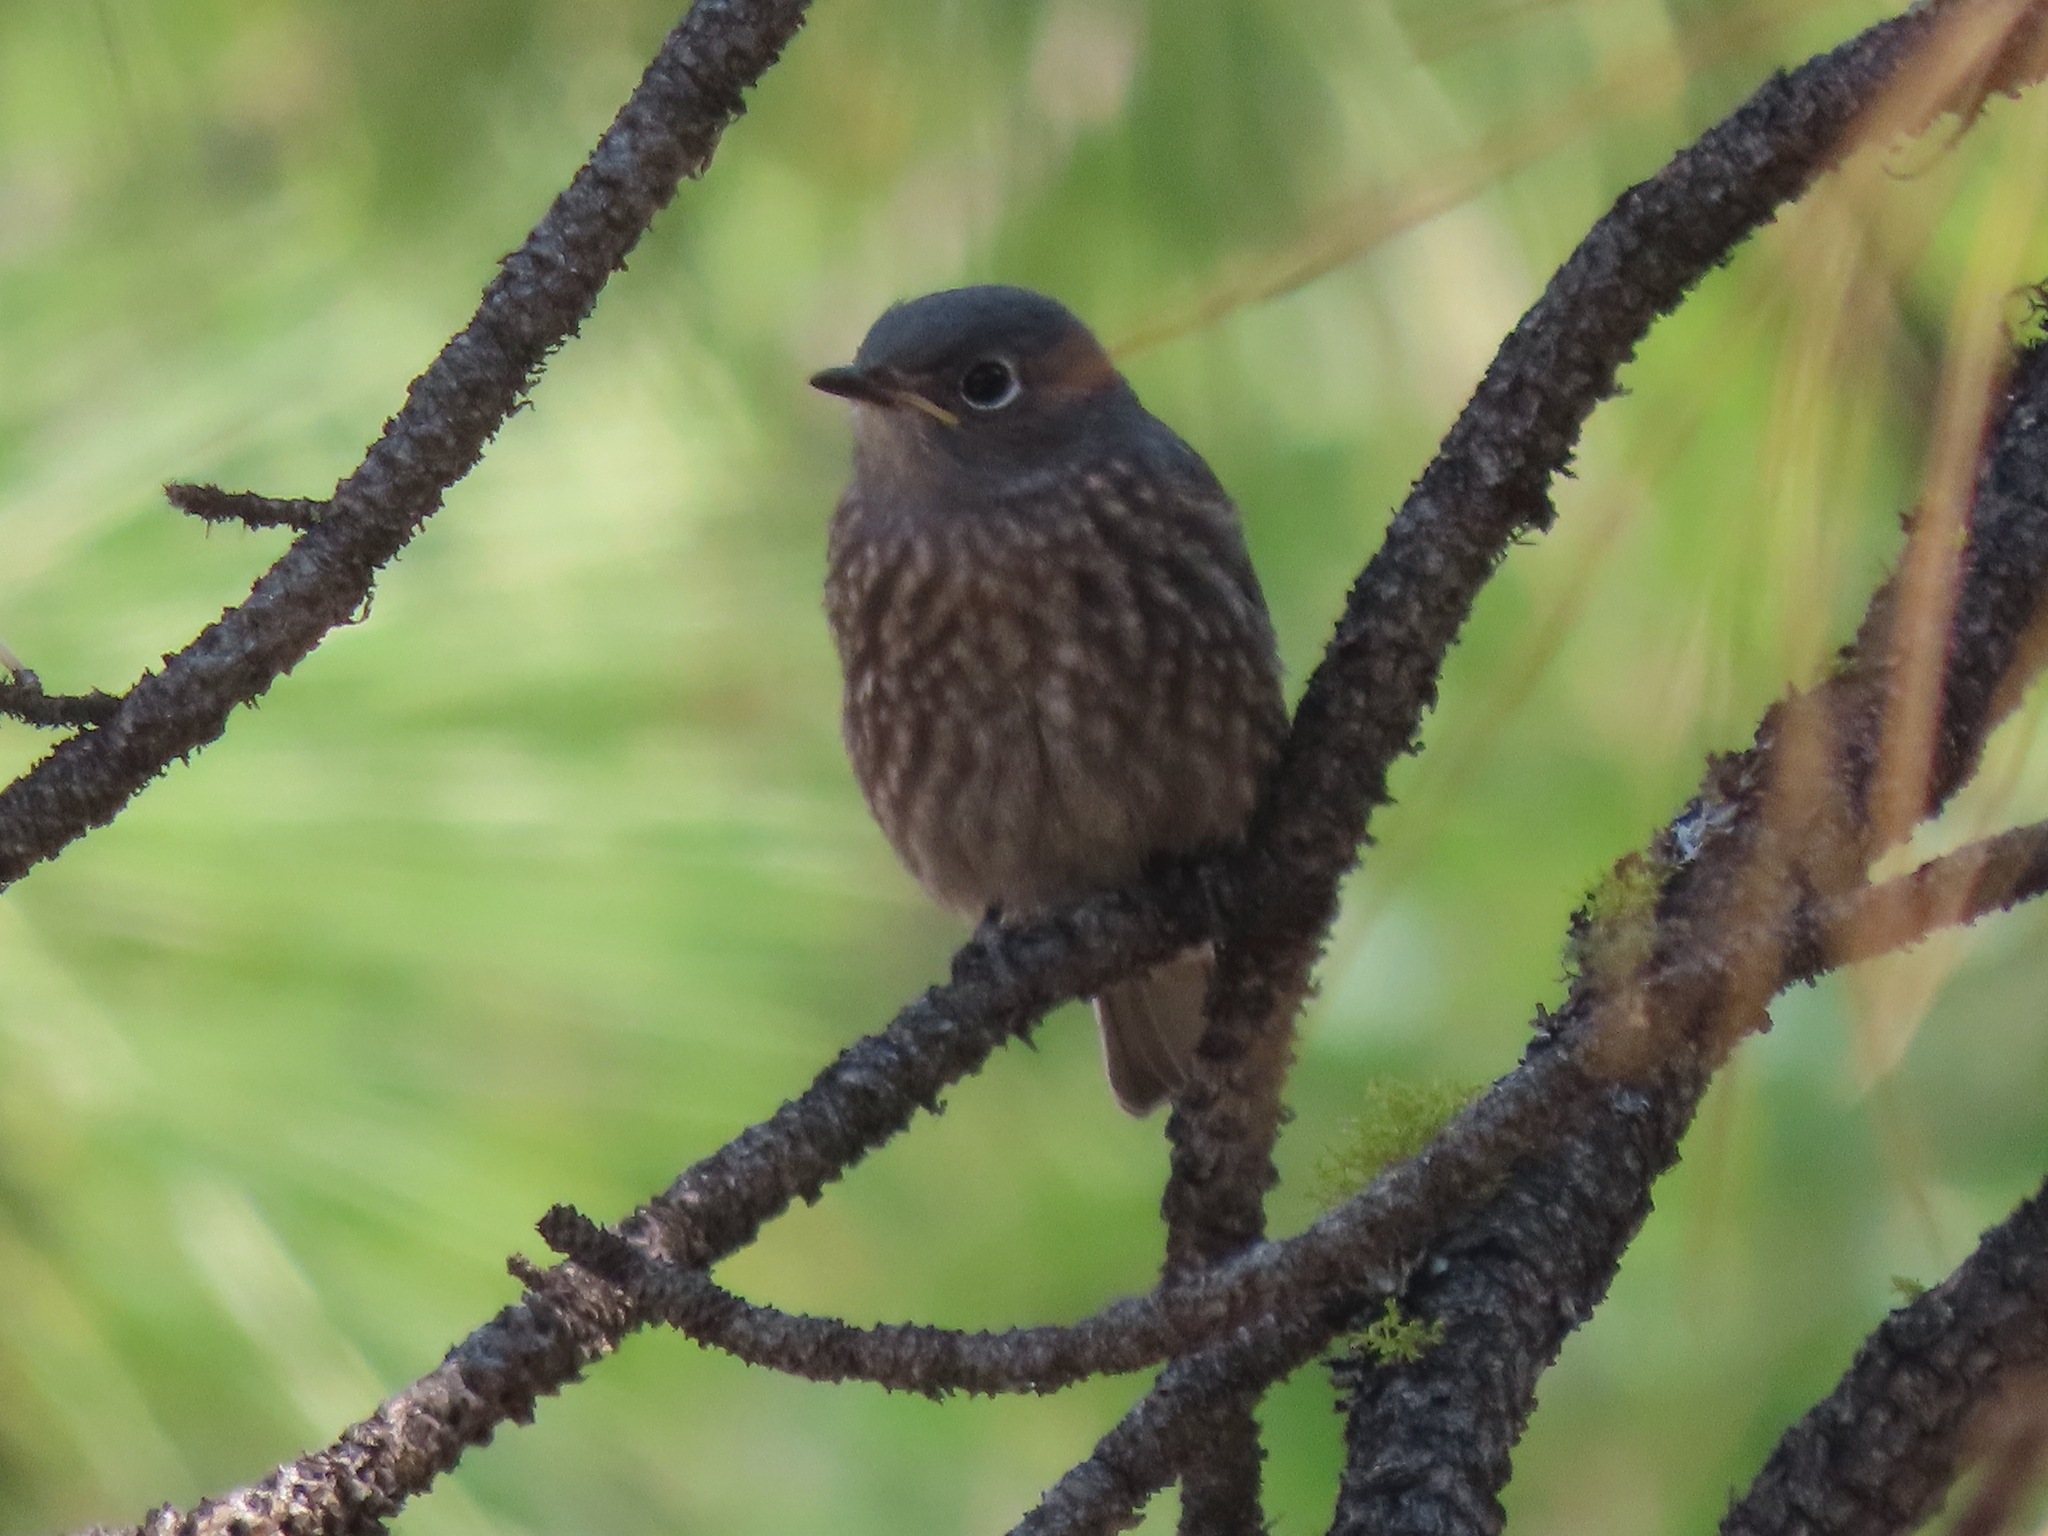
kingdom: Animalia
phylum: Chordata
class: Aves
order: Passeriformes
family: Turdidae
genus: Sialia
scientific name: Sialia mexicana
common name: Western bluebird
